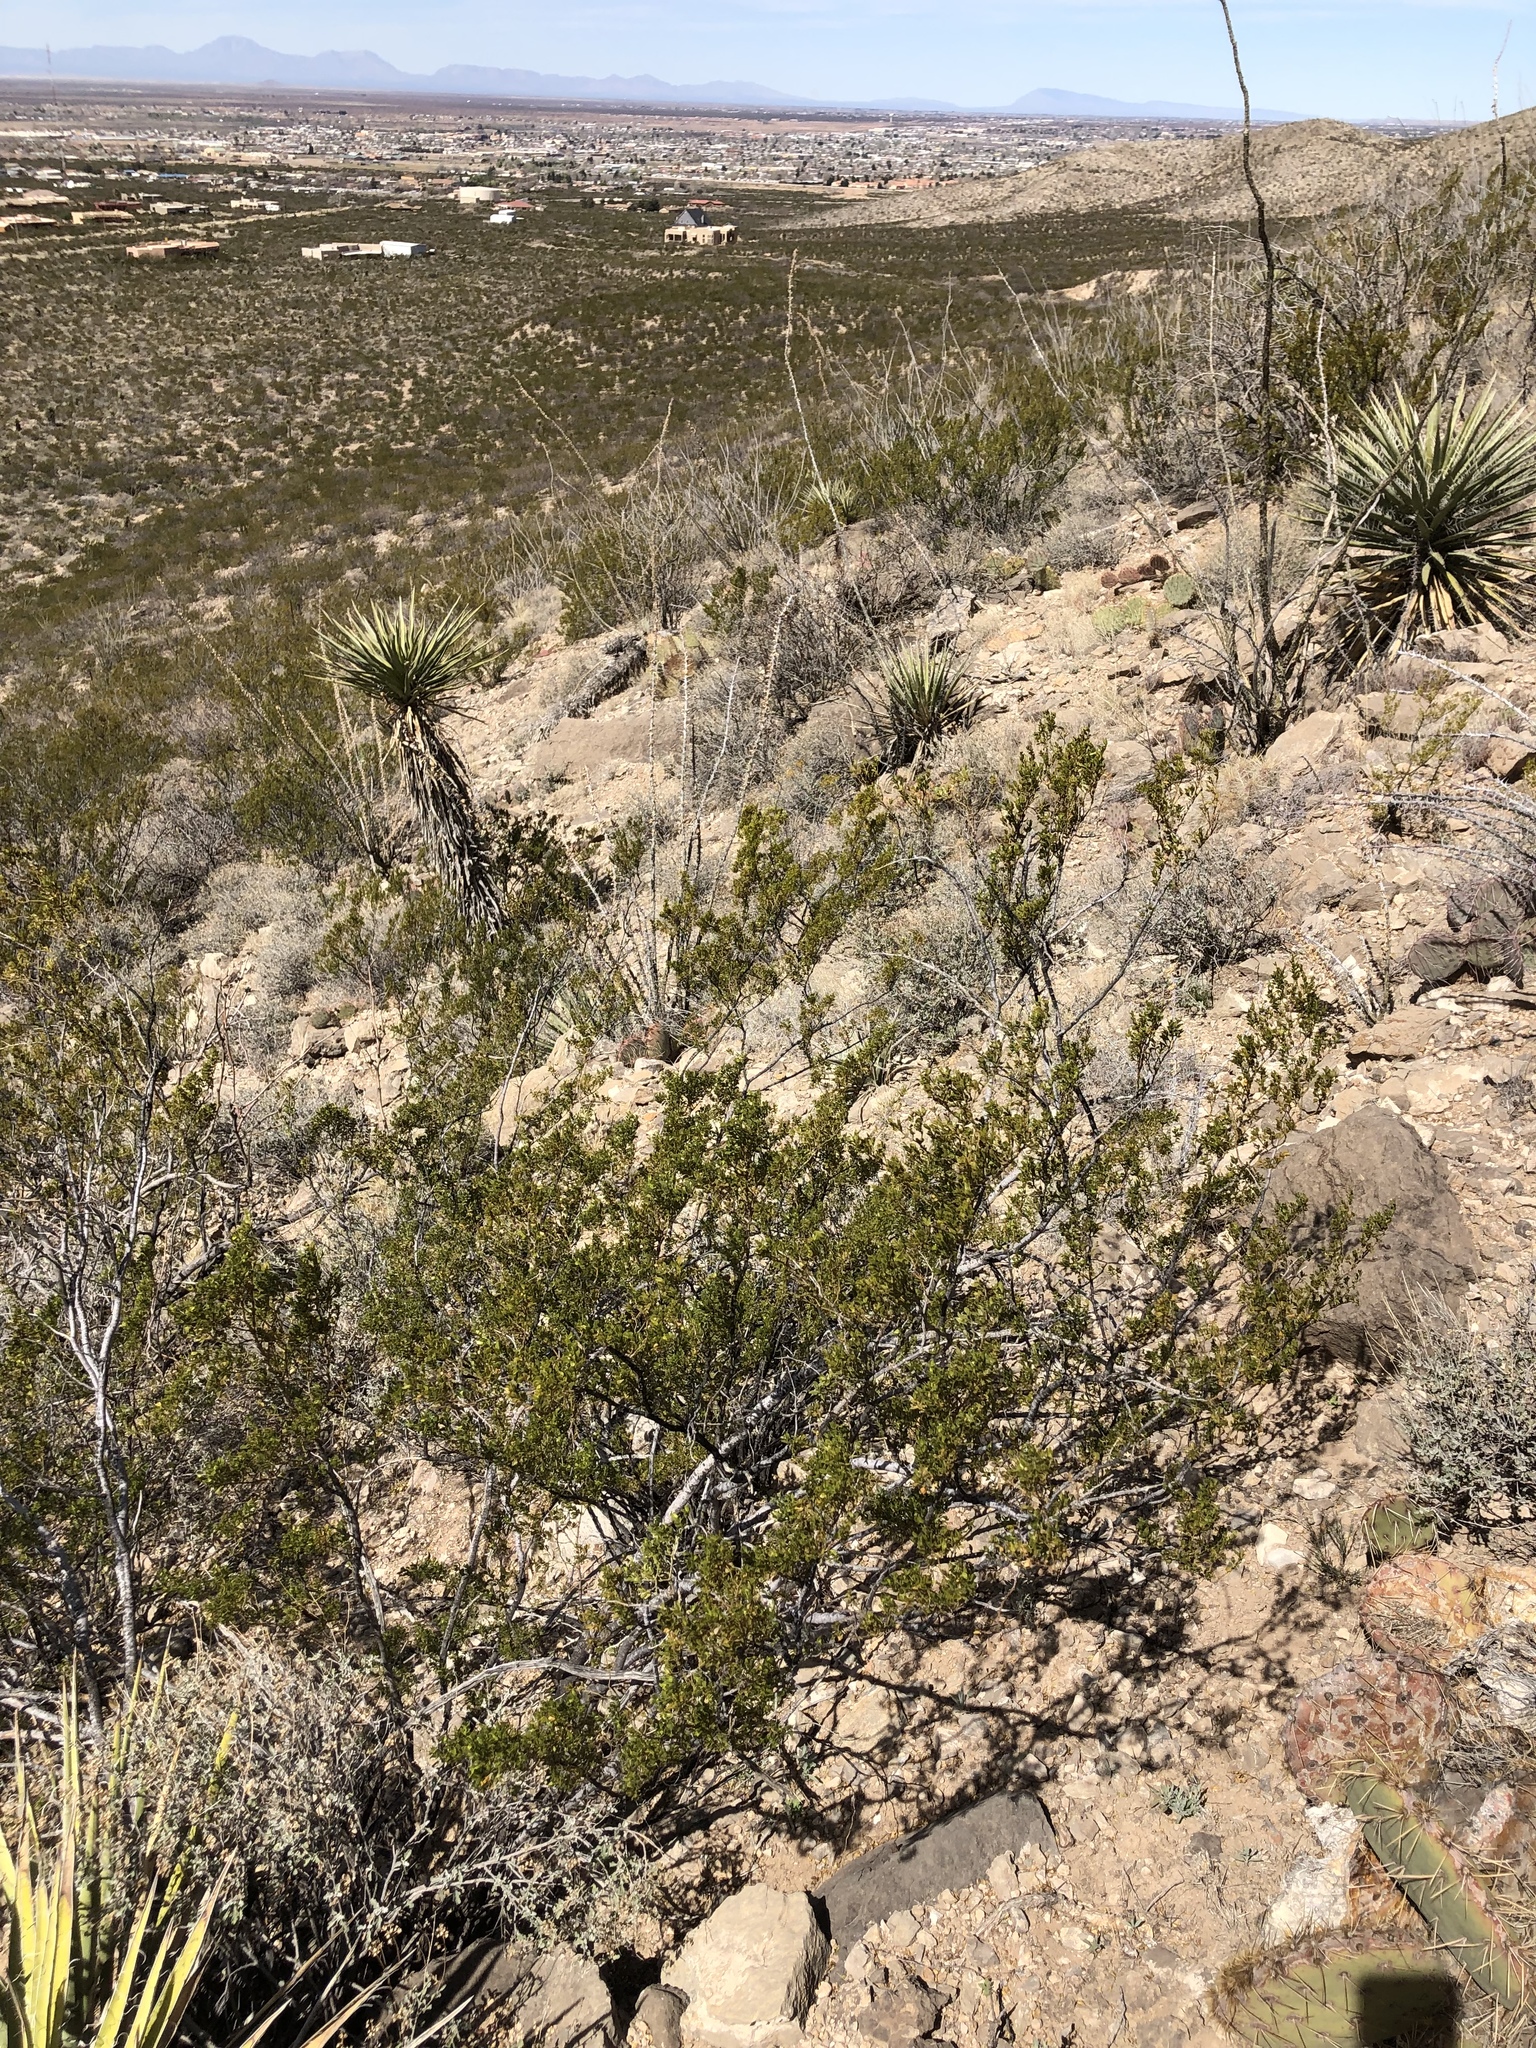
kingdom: Plantae
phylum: Tracheophyta
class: Magnoliopsida
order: Zygophyllales
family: Zygophyllaceae
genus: Larrea
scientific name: Larrea tridentata
